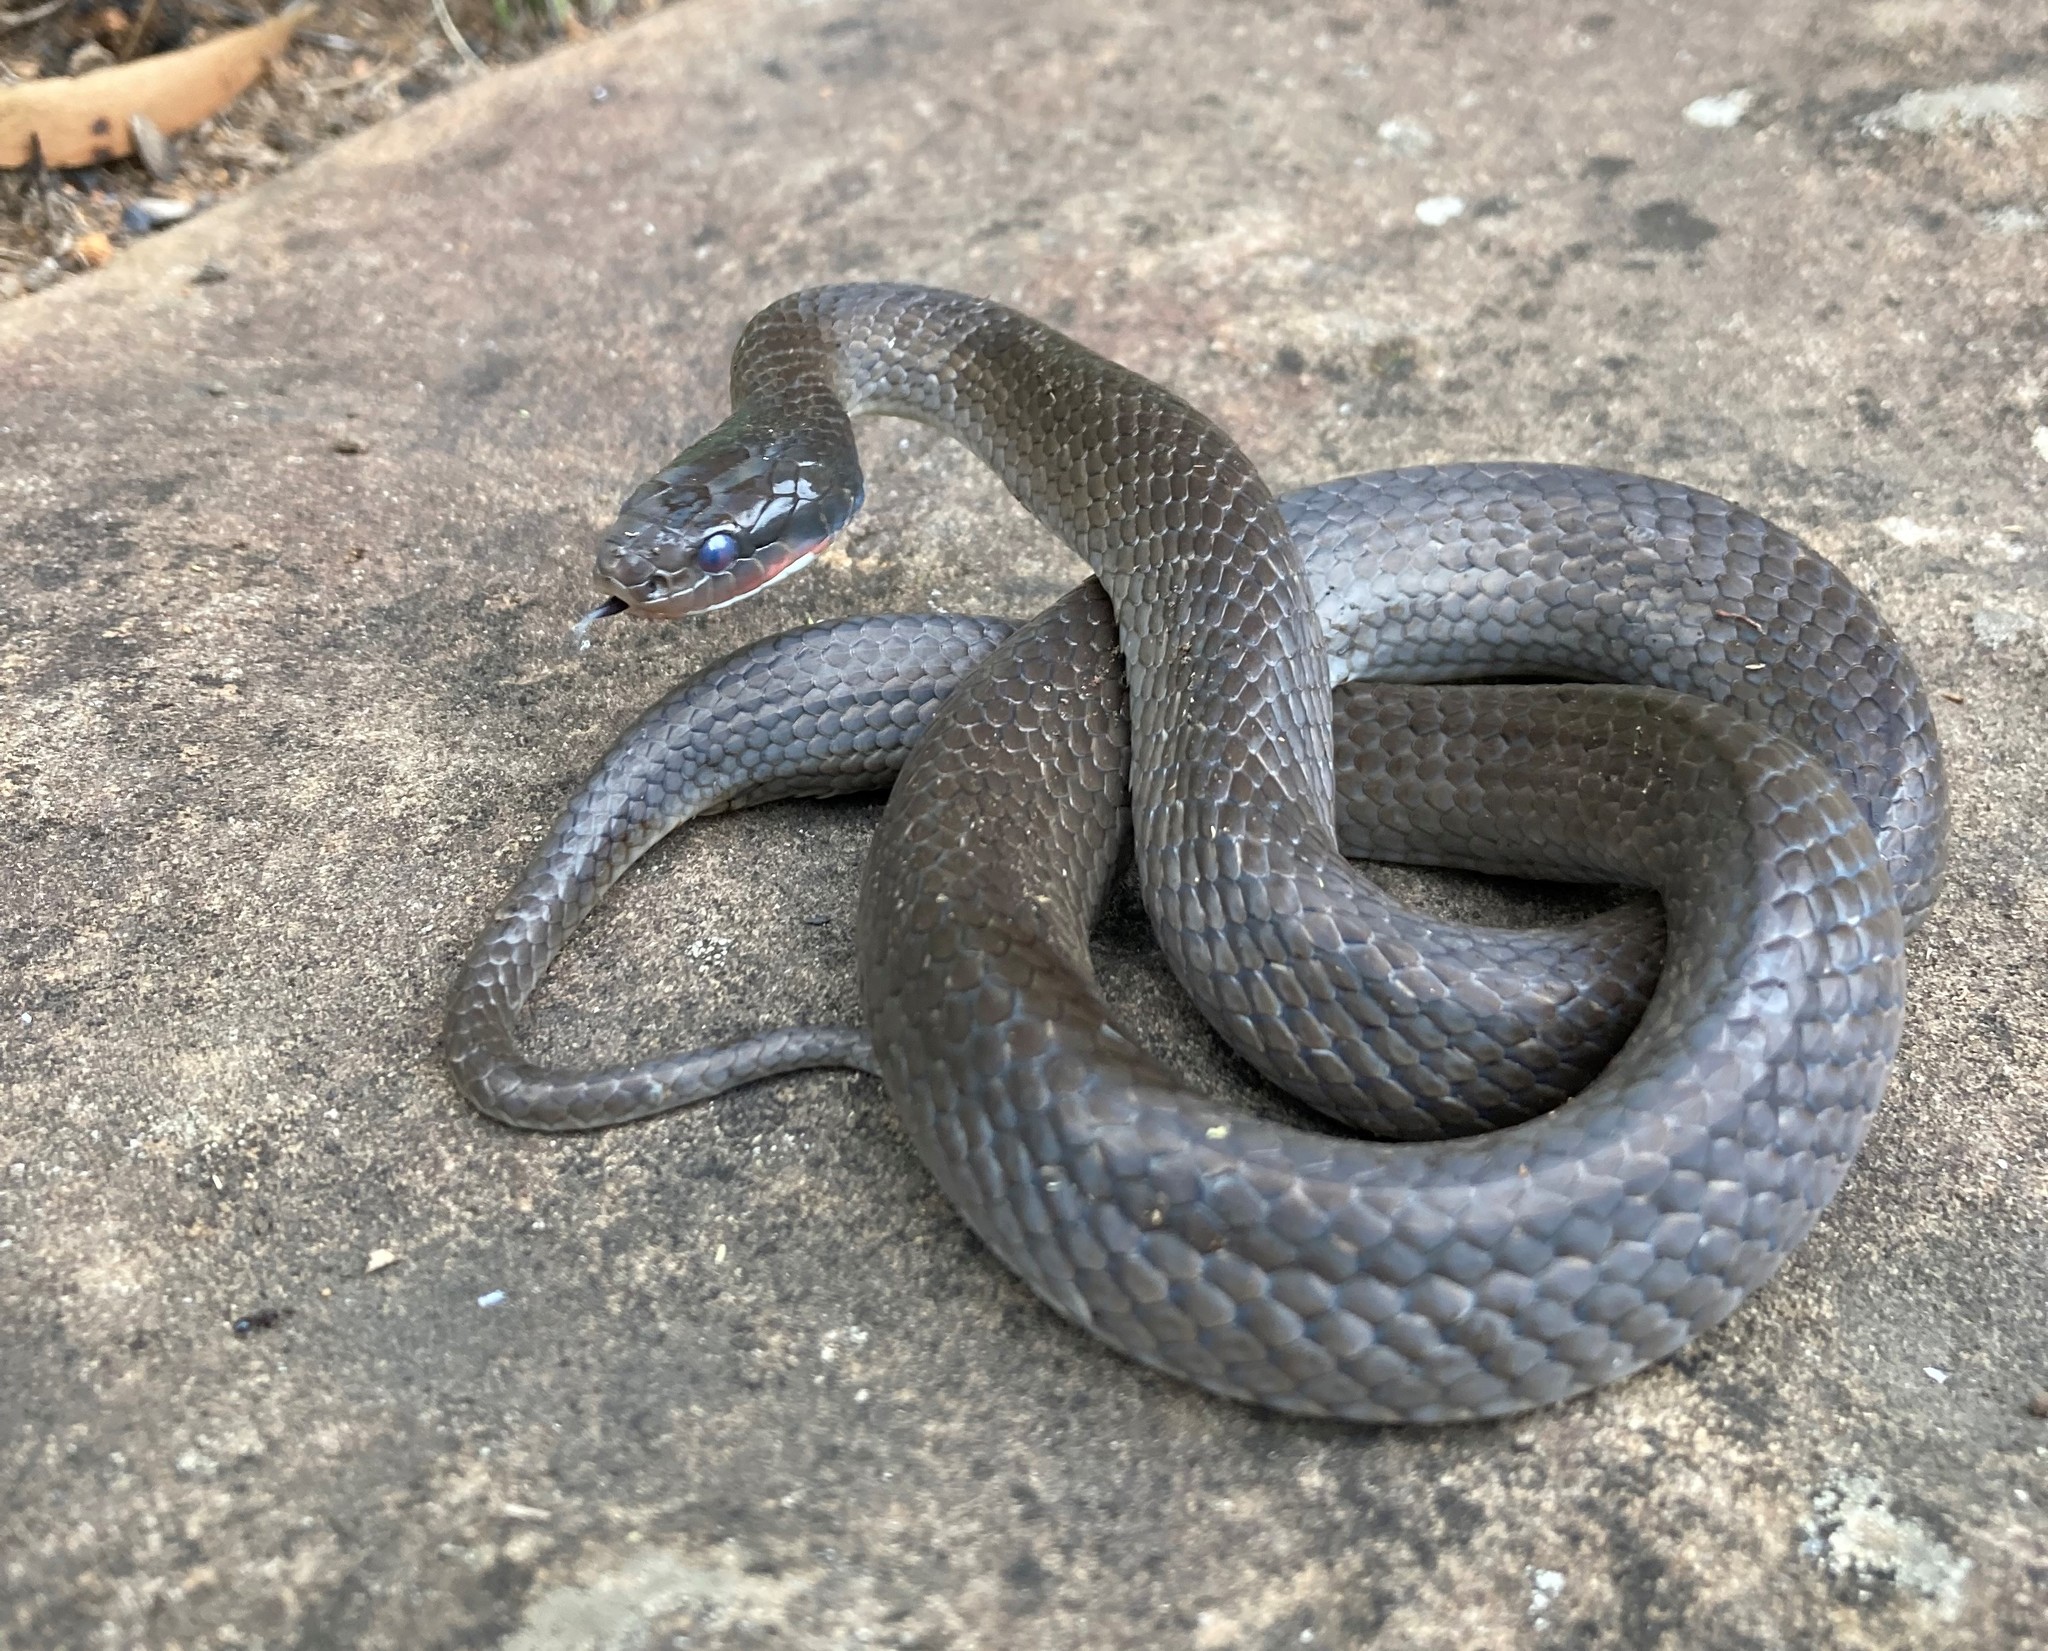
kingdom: Animalia
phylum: Chordata
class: Squamata
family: Colubridae
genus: Crotaphopeltis
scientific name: Crotaphopeltis hotamboeia
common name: Red-lipped snake
